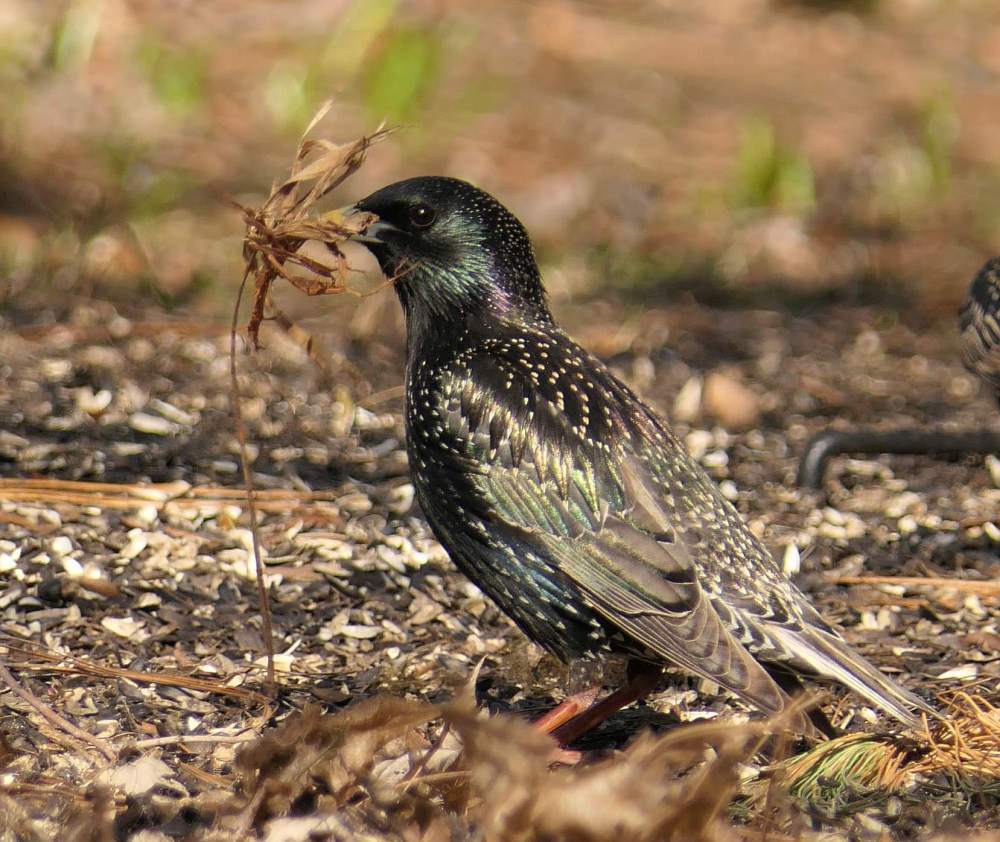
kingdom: Animalia
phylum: Chordata
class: Aves
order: Passeriformes
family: Sturnidae
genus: Sturnus
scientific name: Sturnus vulgaris
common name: Common starling
